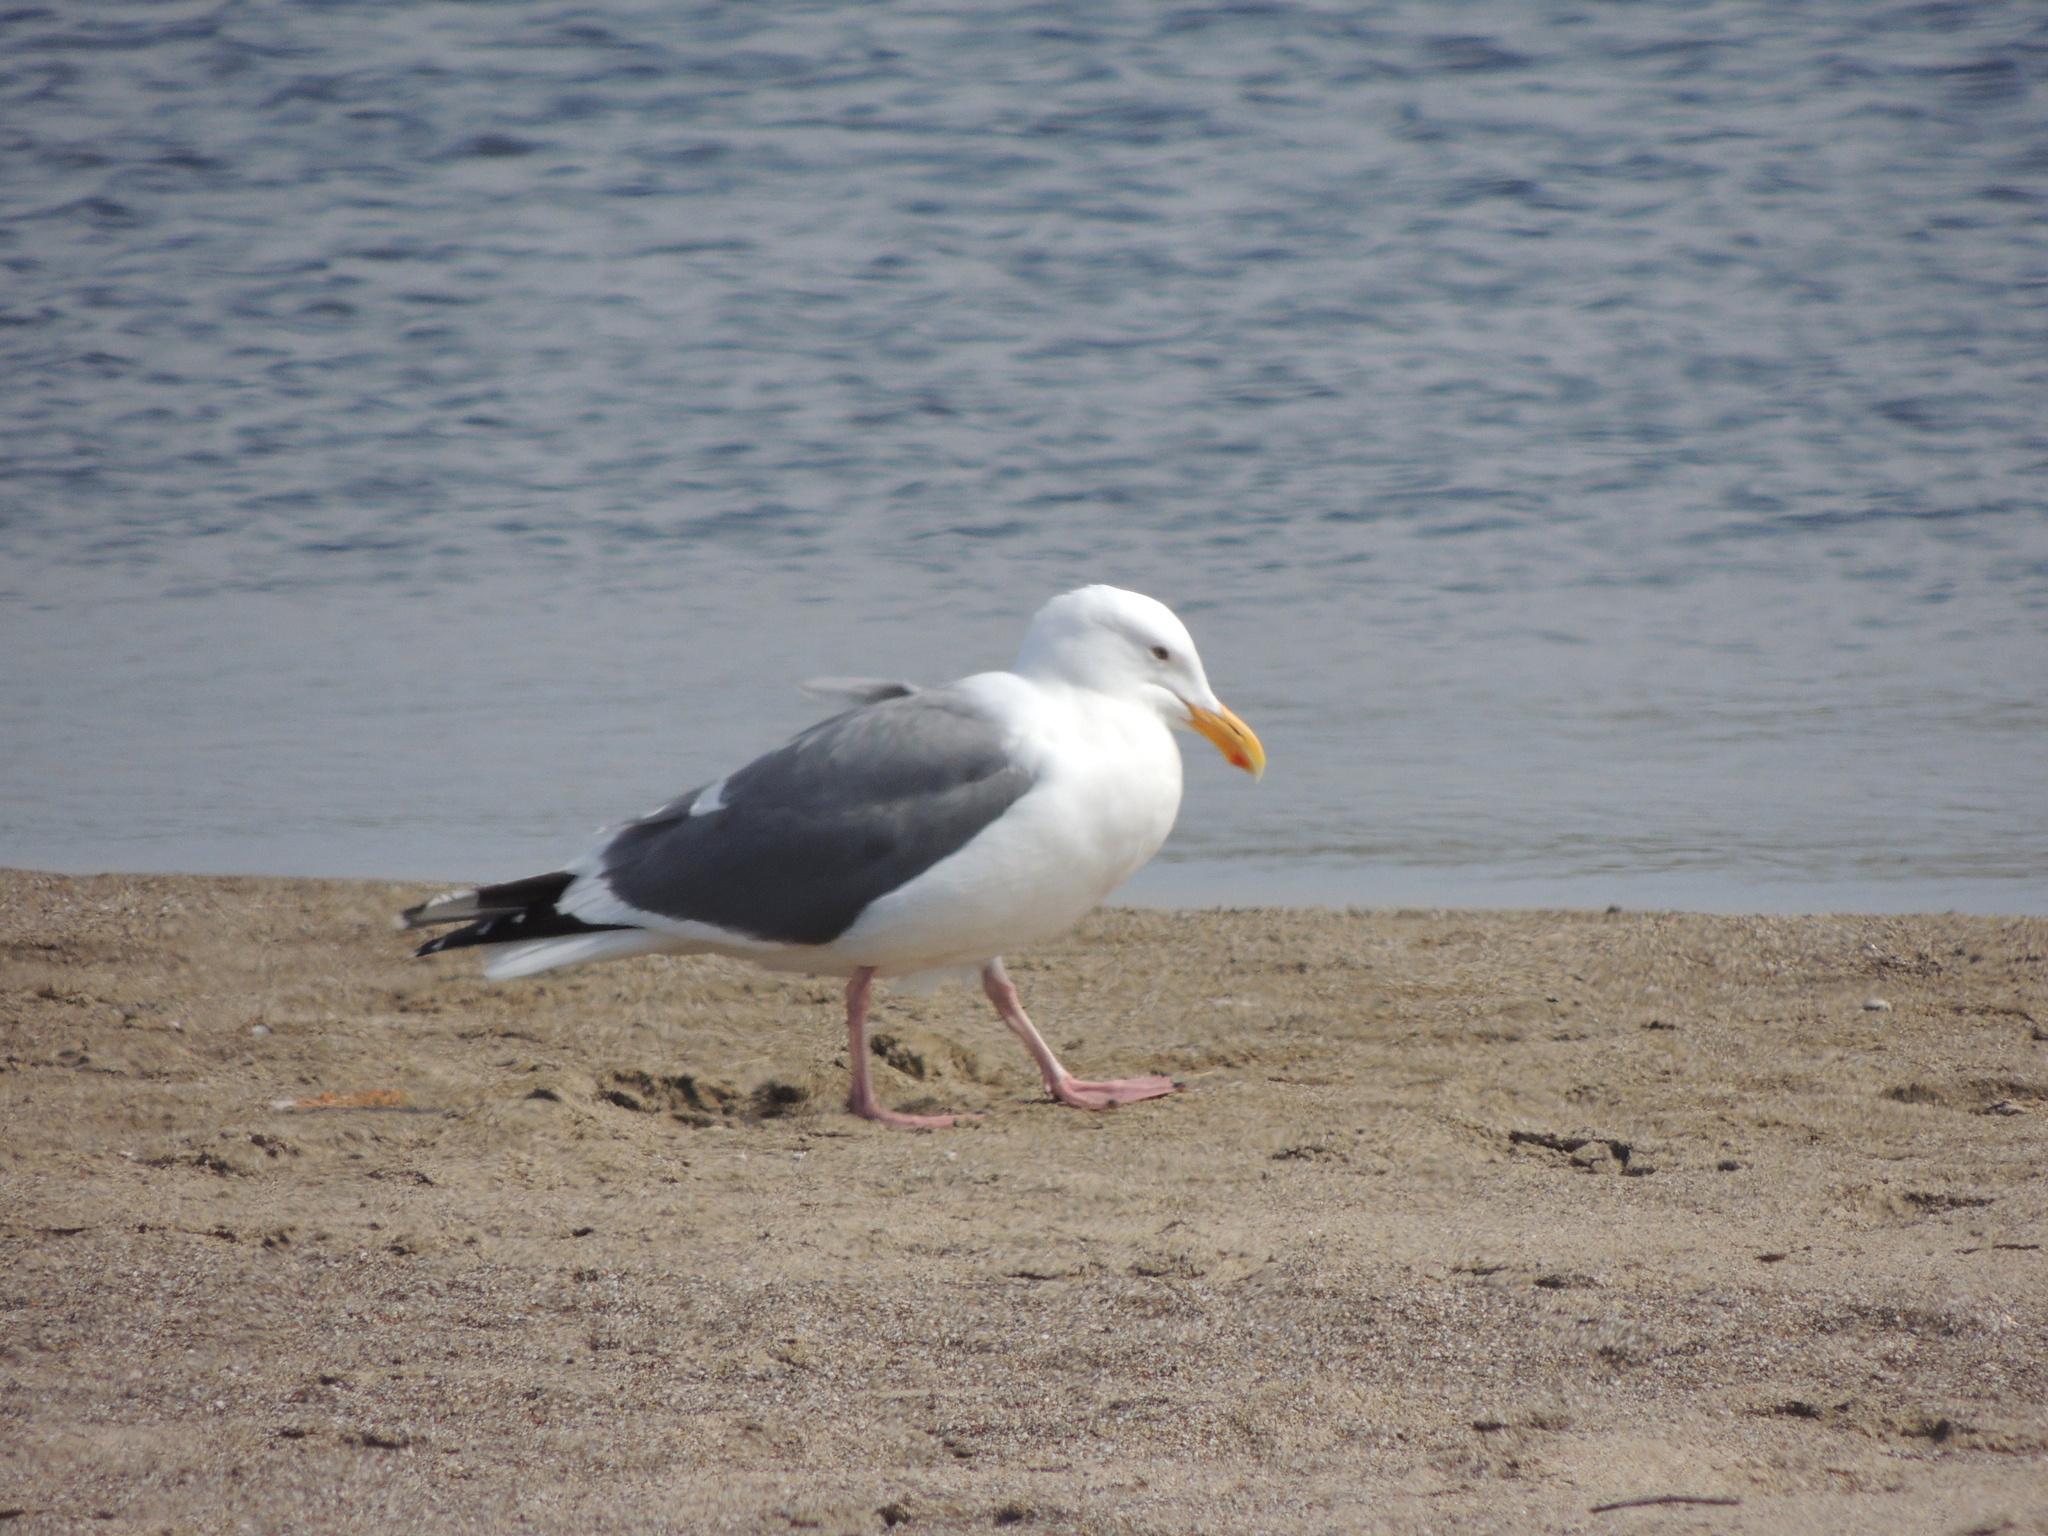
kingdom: Animalia
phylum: Chordata
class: Aves
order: Charadriiformes
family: Laridae
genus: Larus
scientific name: Larus occidentalis
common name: Western gull
